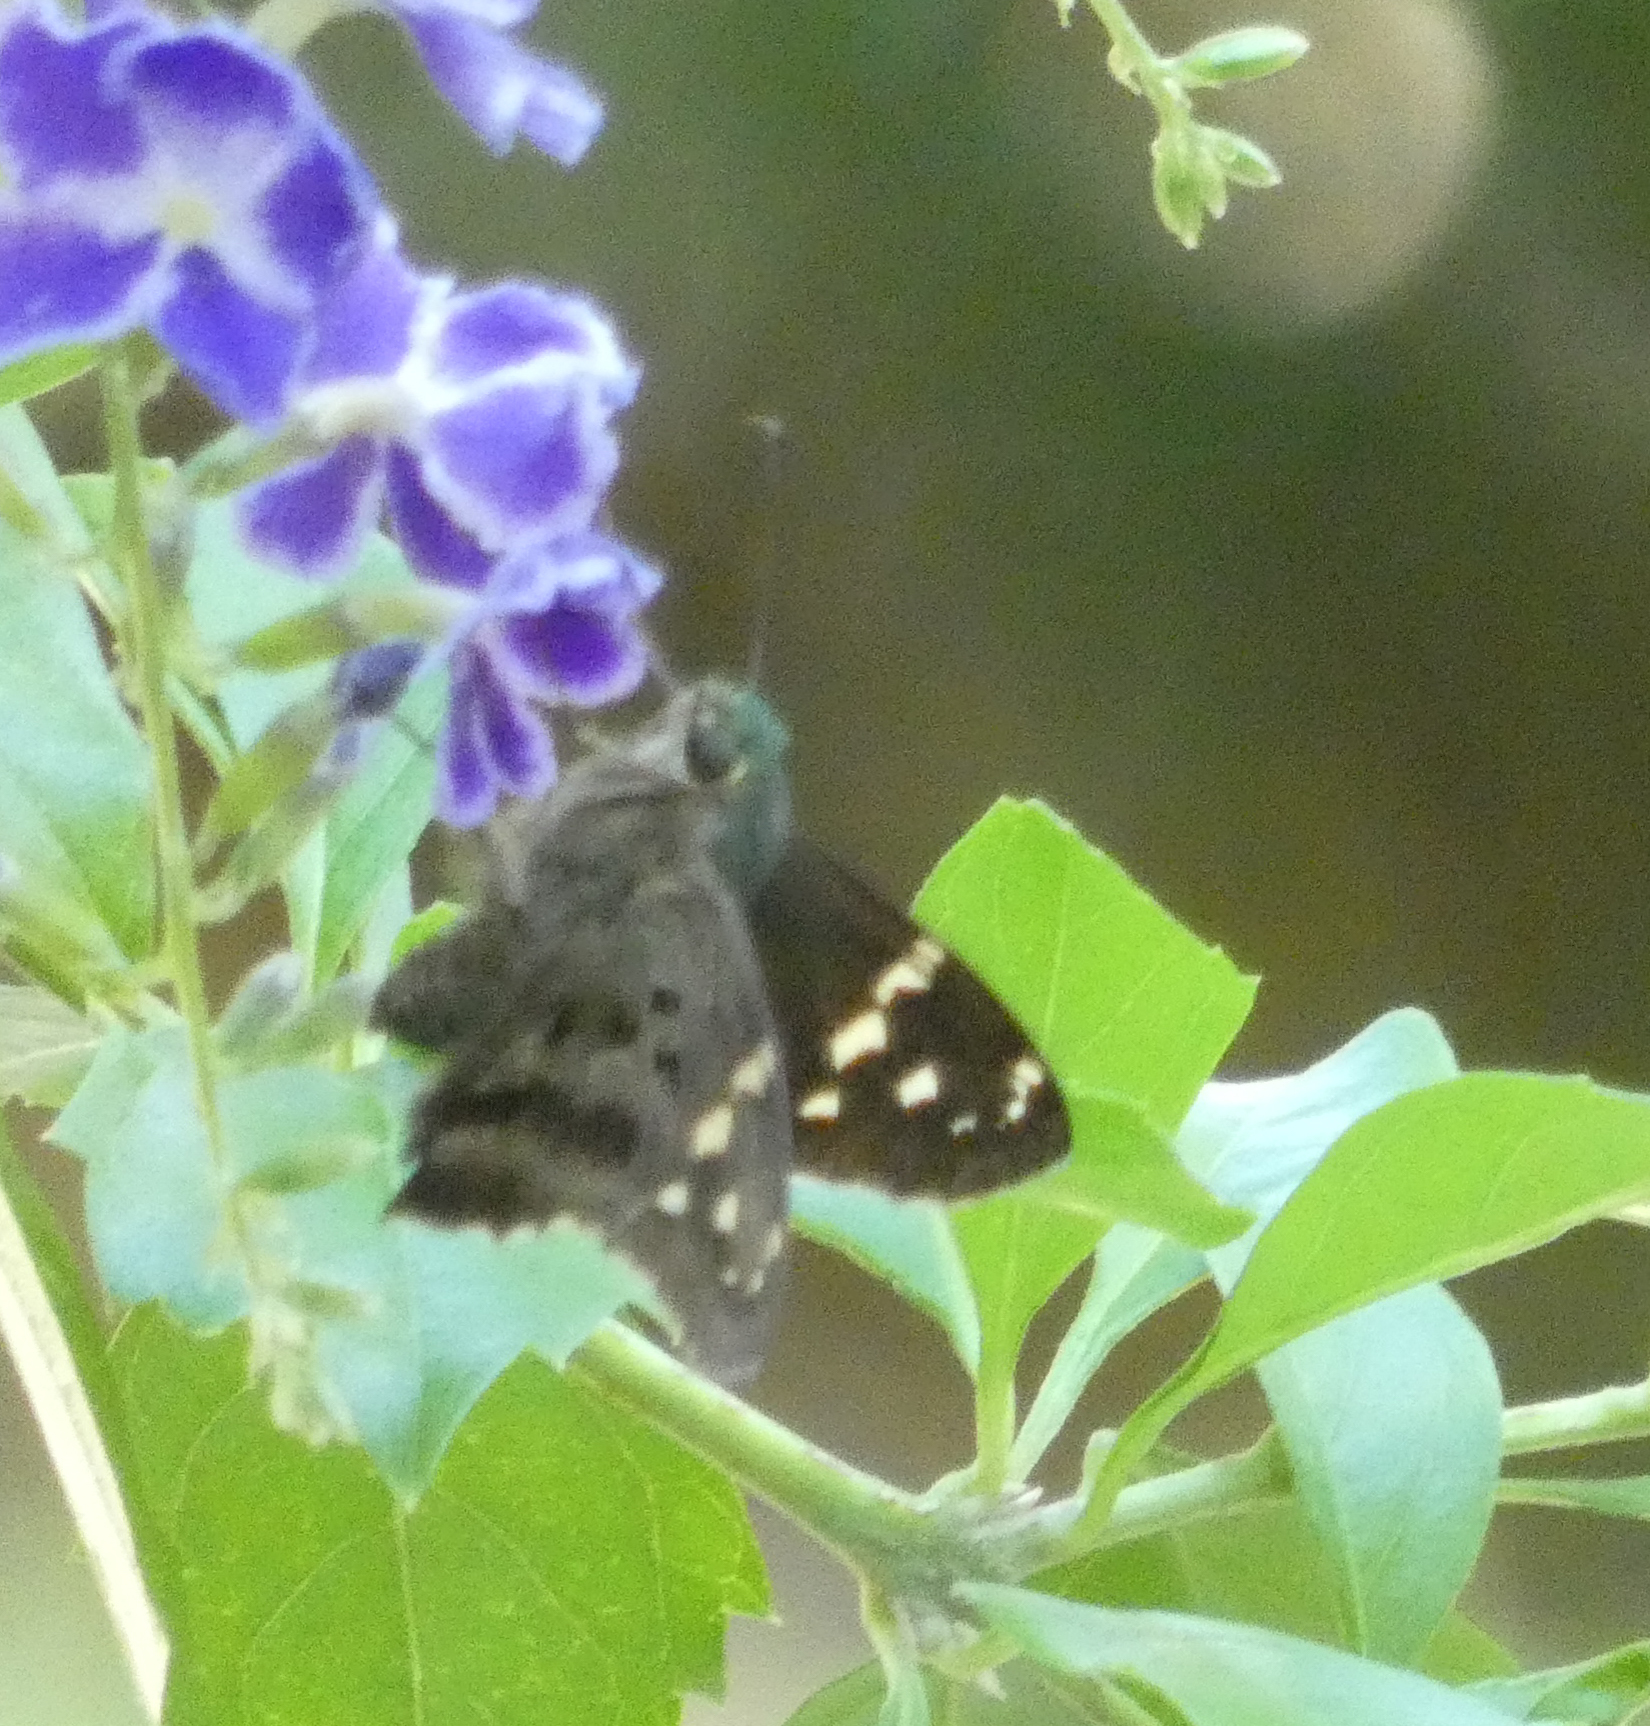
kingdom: Animalia
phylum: Arthropoda
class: Insecta
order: Lepidoptera
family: Hesperiidae
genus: Urbanus
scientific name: Urbanus proteus
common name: Long-tailed skipper
